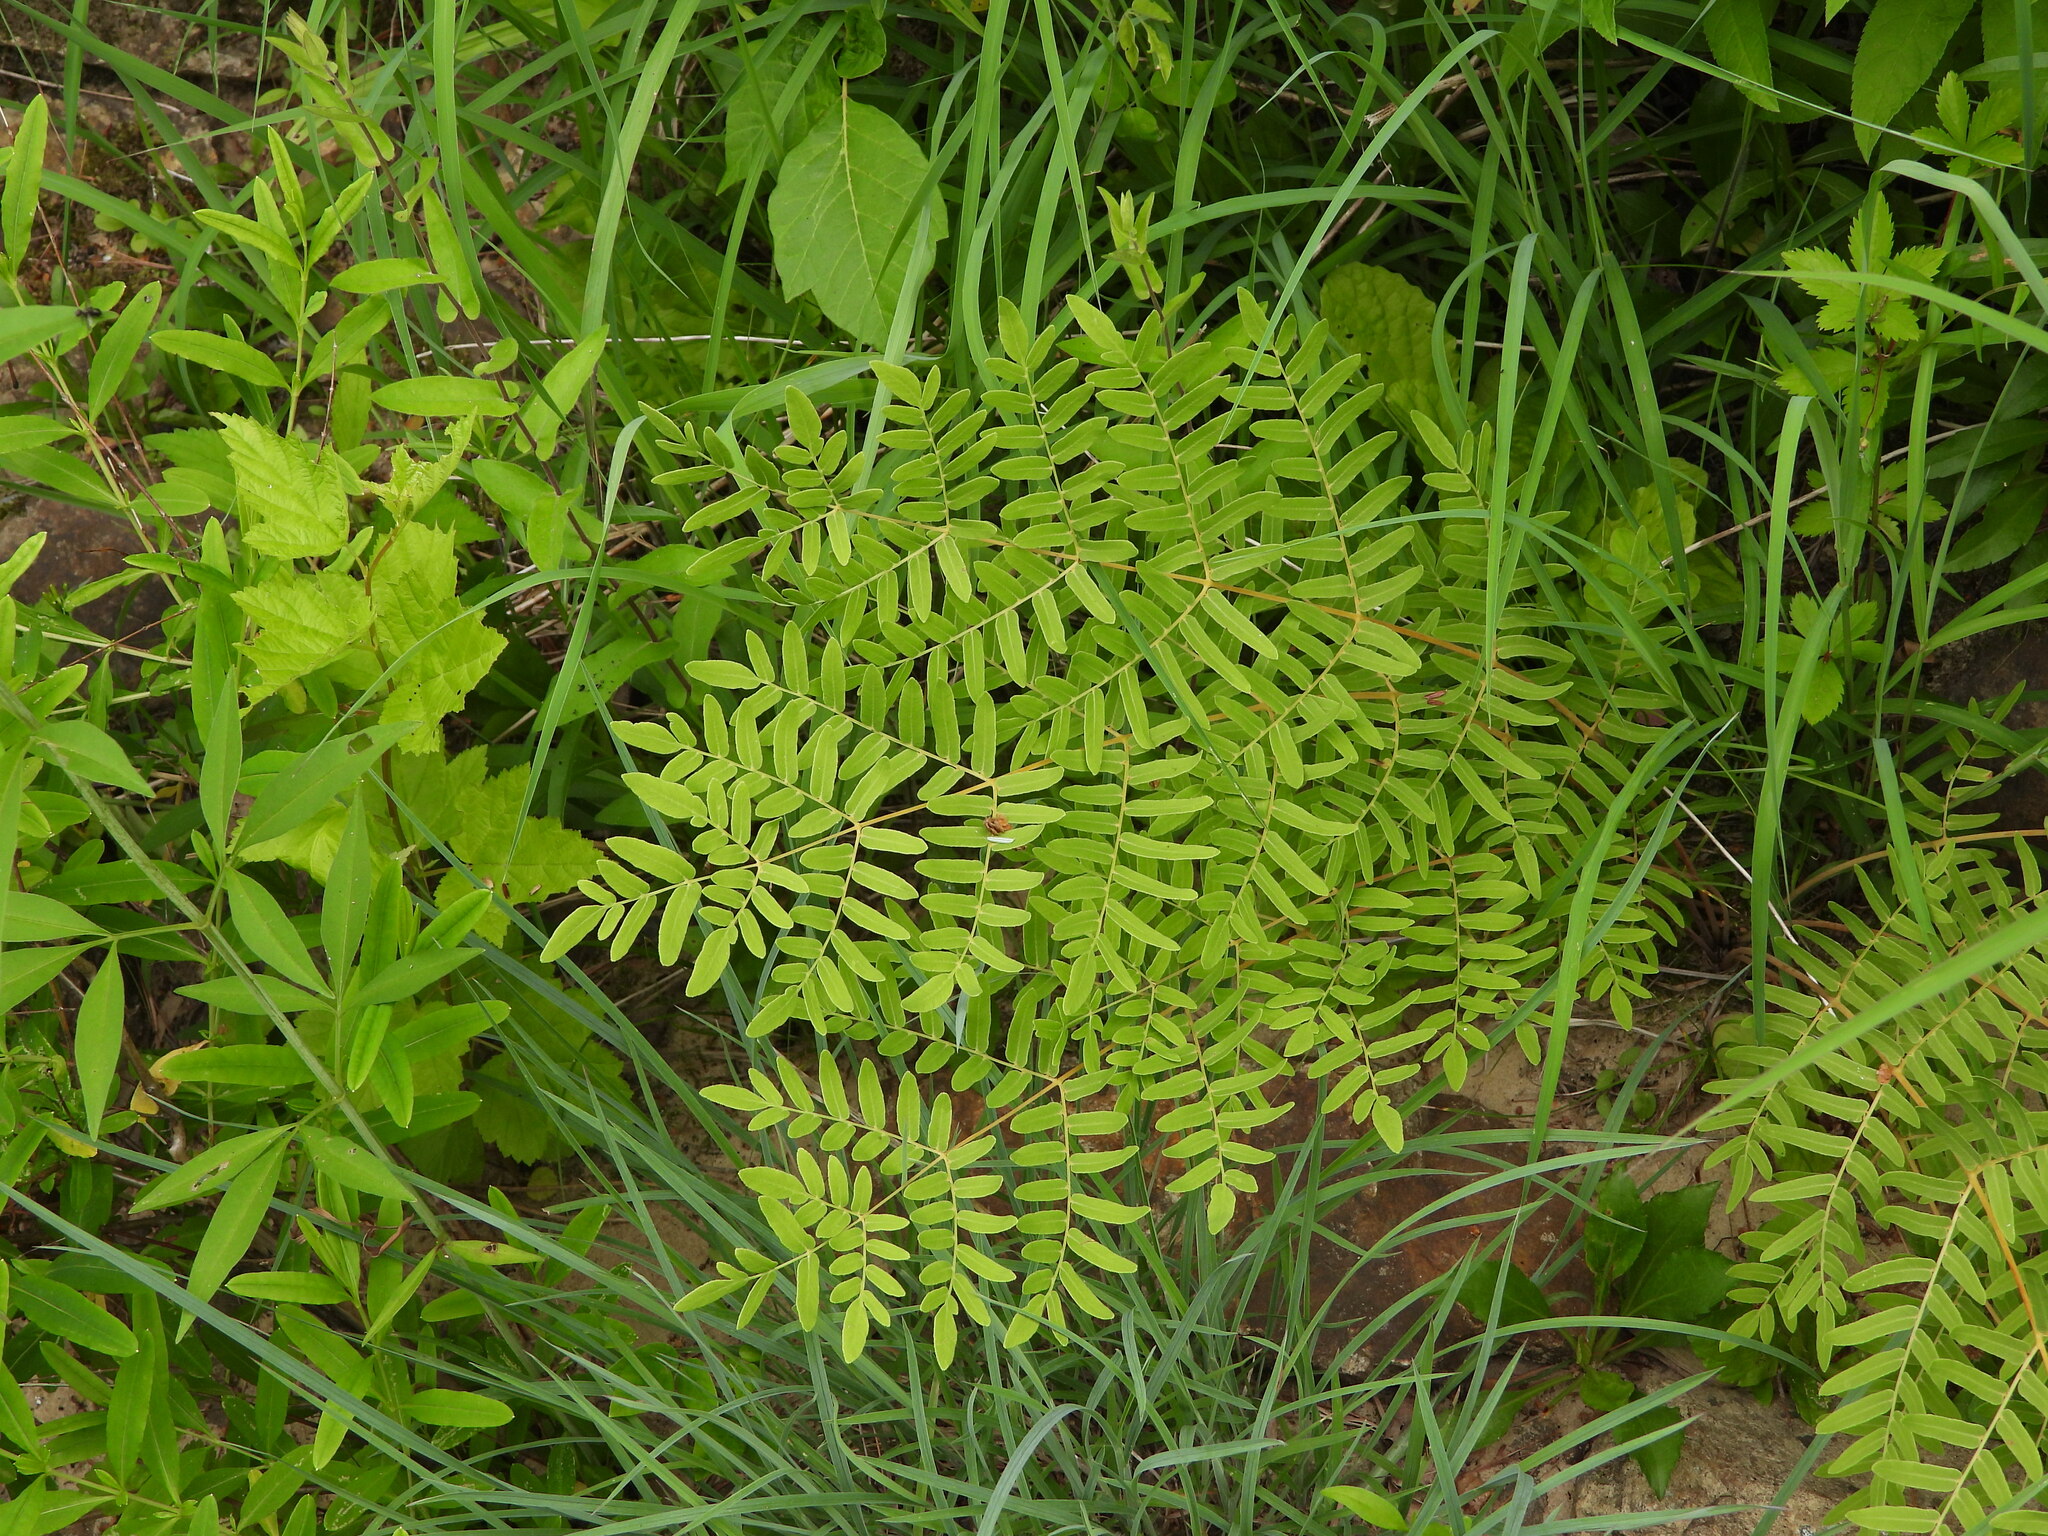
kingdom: Plantae
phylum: Tracheophyta
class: Polypodiopsida
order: Osmundales
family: Osmundaceae
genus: Osmunda
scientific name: Osmunda spectabilis
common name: American royal fern
